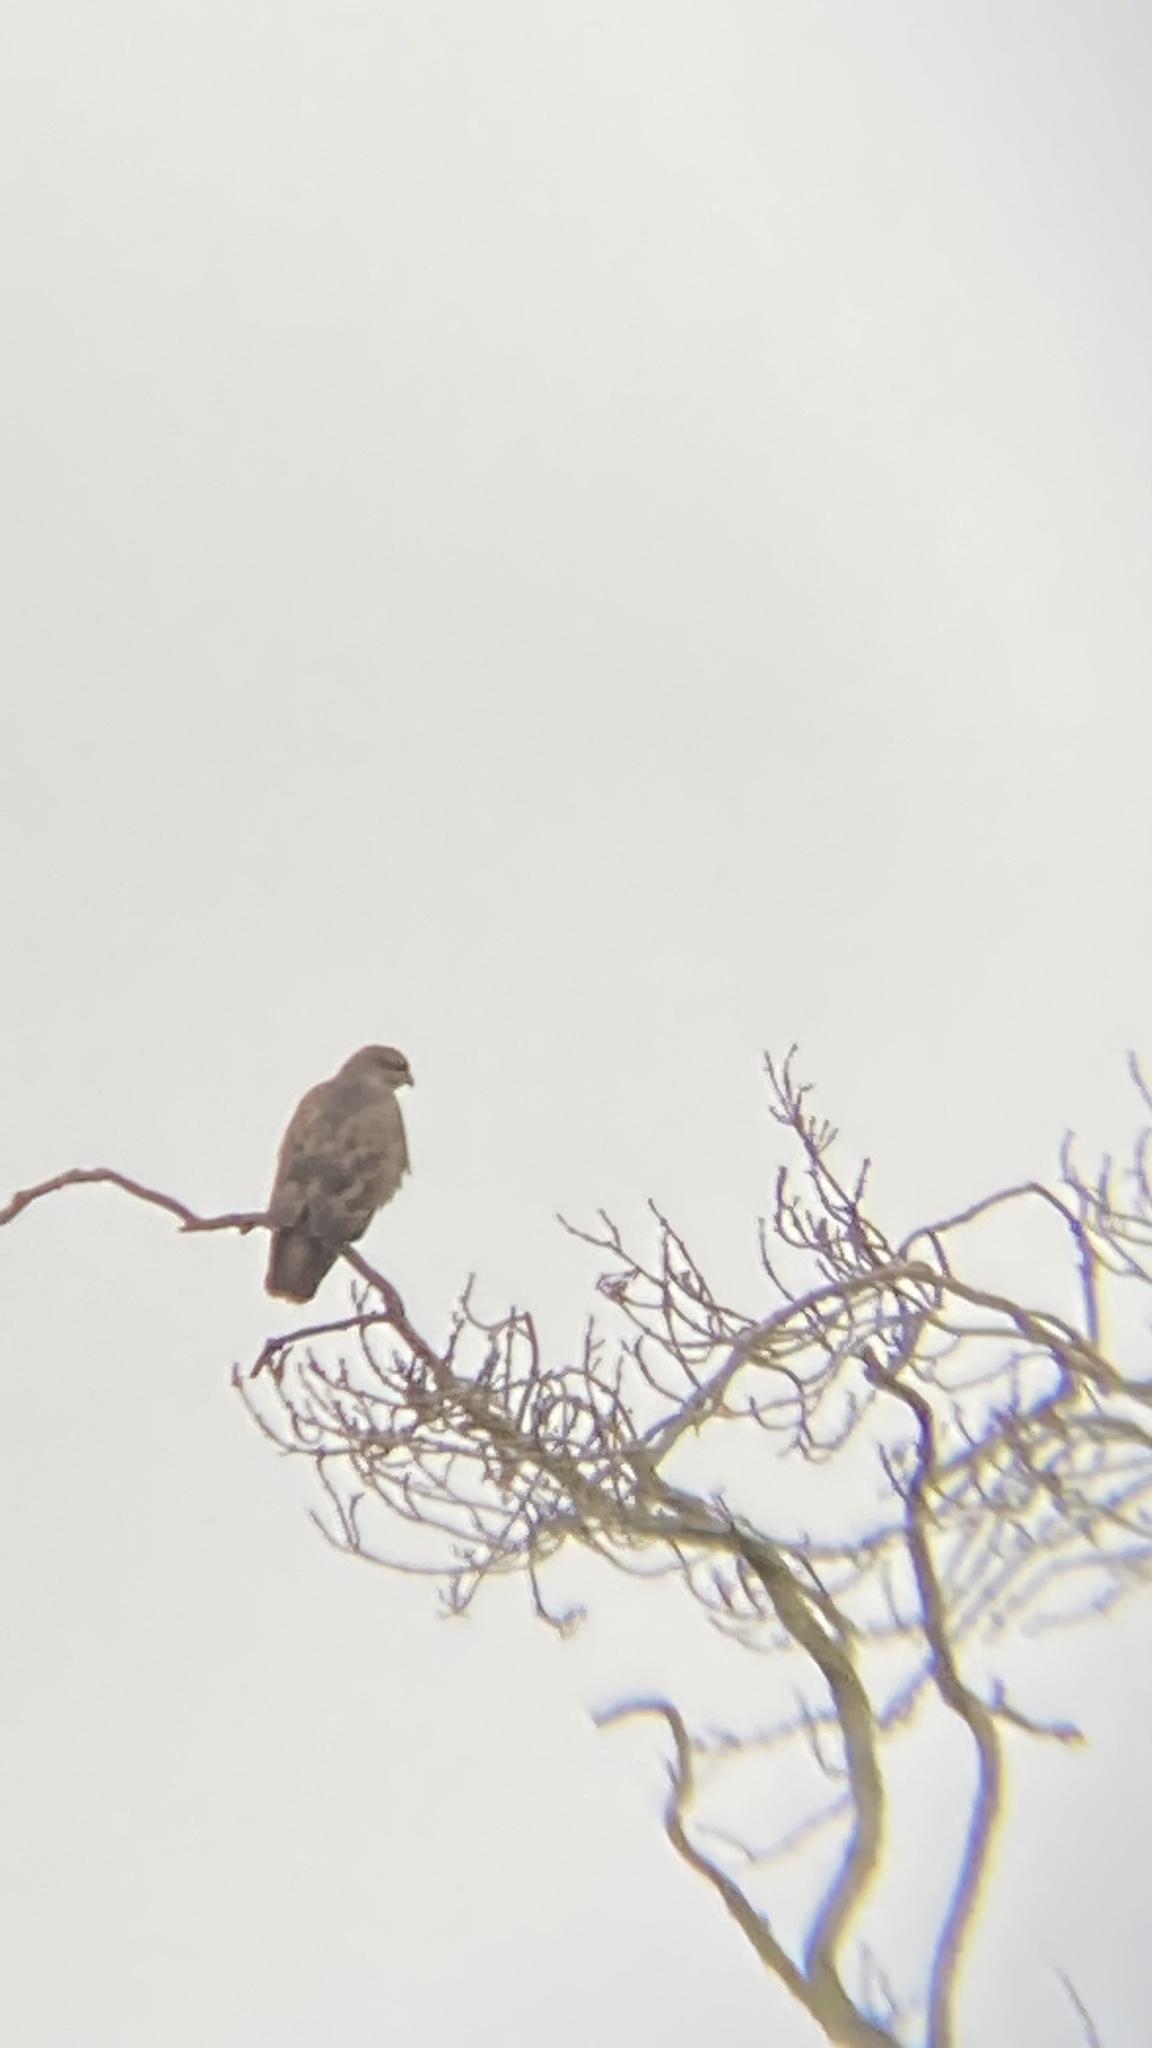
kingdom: Animalia
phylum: Chordata
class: Aves
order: Accipitriformes
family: Accipitridae
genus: Buteo
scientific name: Buteo buteo
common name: Common buzzard
